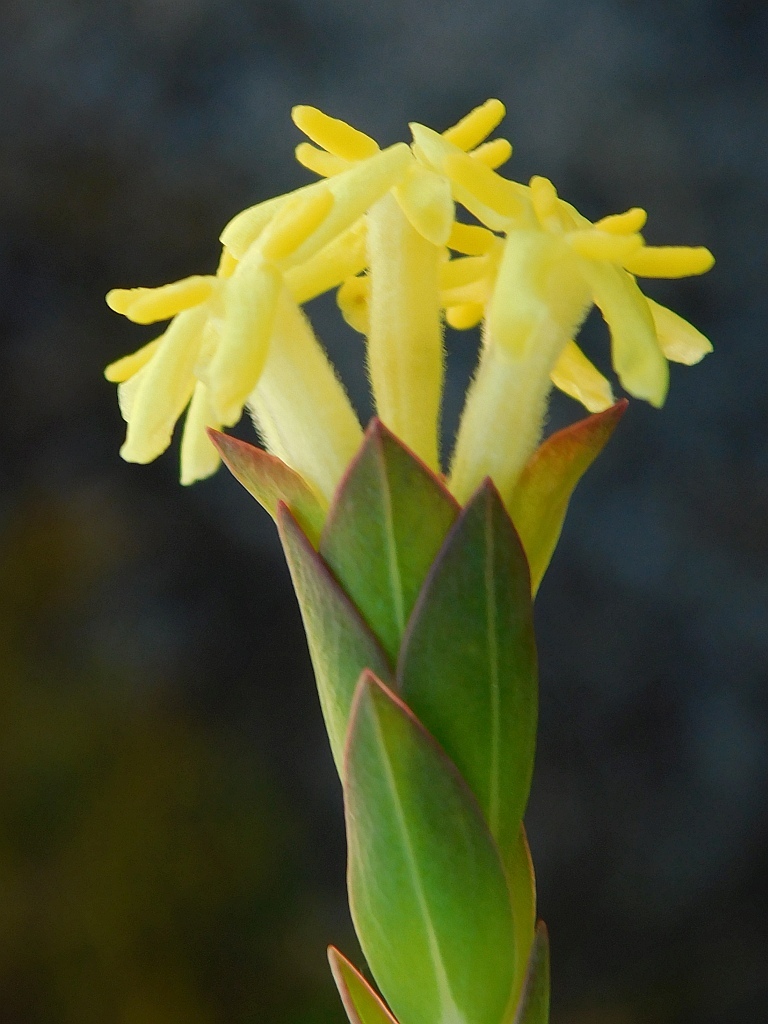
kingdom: Plantae
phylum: Tracheophyta
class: Magnoliopsida
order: Malvales
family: Thymelaeaceae
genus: Gnidia
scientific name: Gnidia oppositifolia
